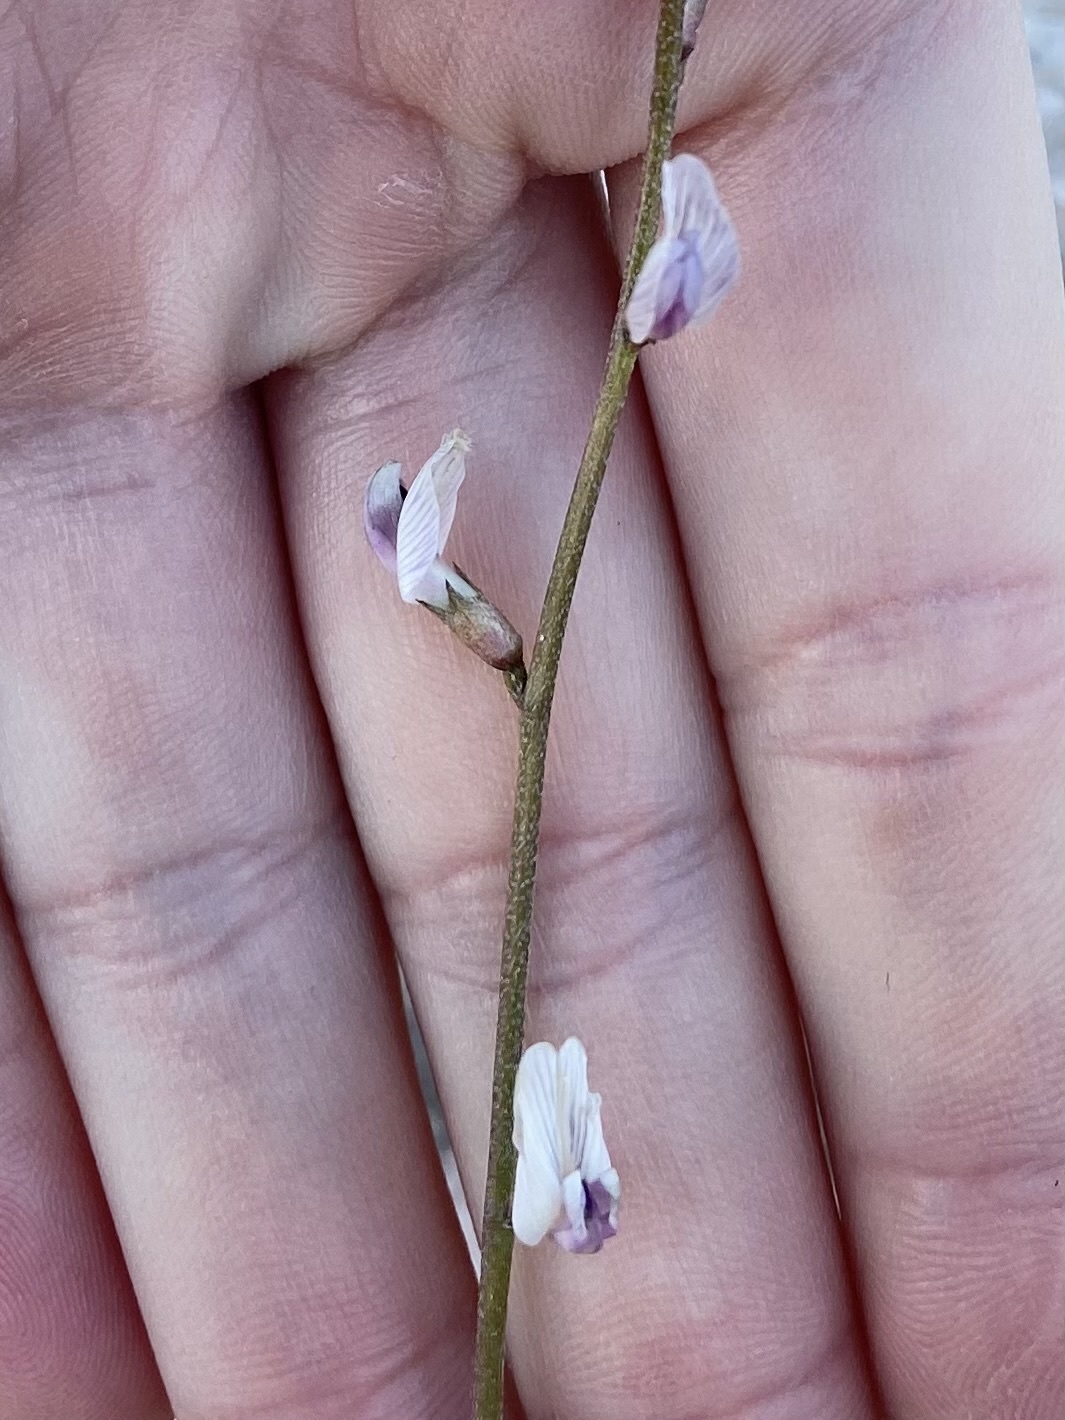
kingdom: Plantae
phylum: Tracheophyta
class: Magnoliopsida
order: Fabales
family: Fabaceae
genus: Astragalus
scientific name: Astragalus remotus
